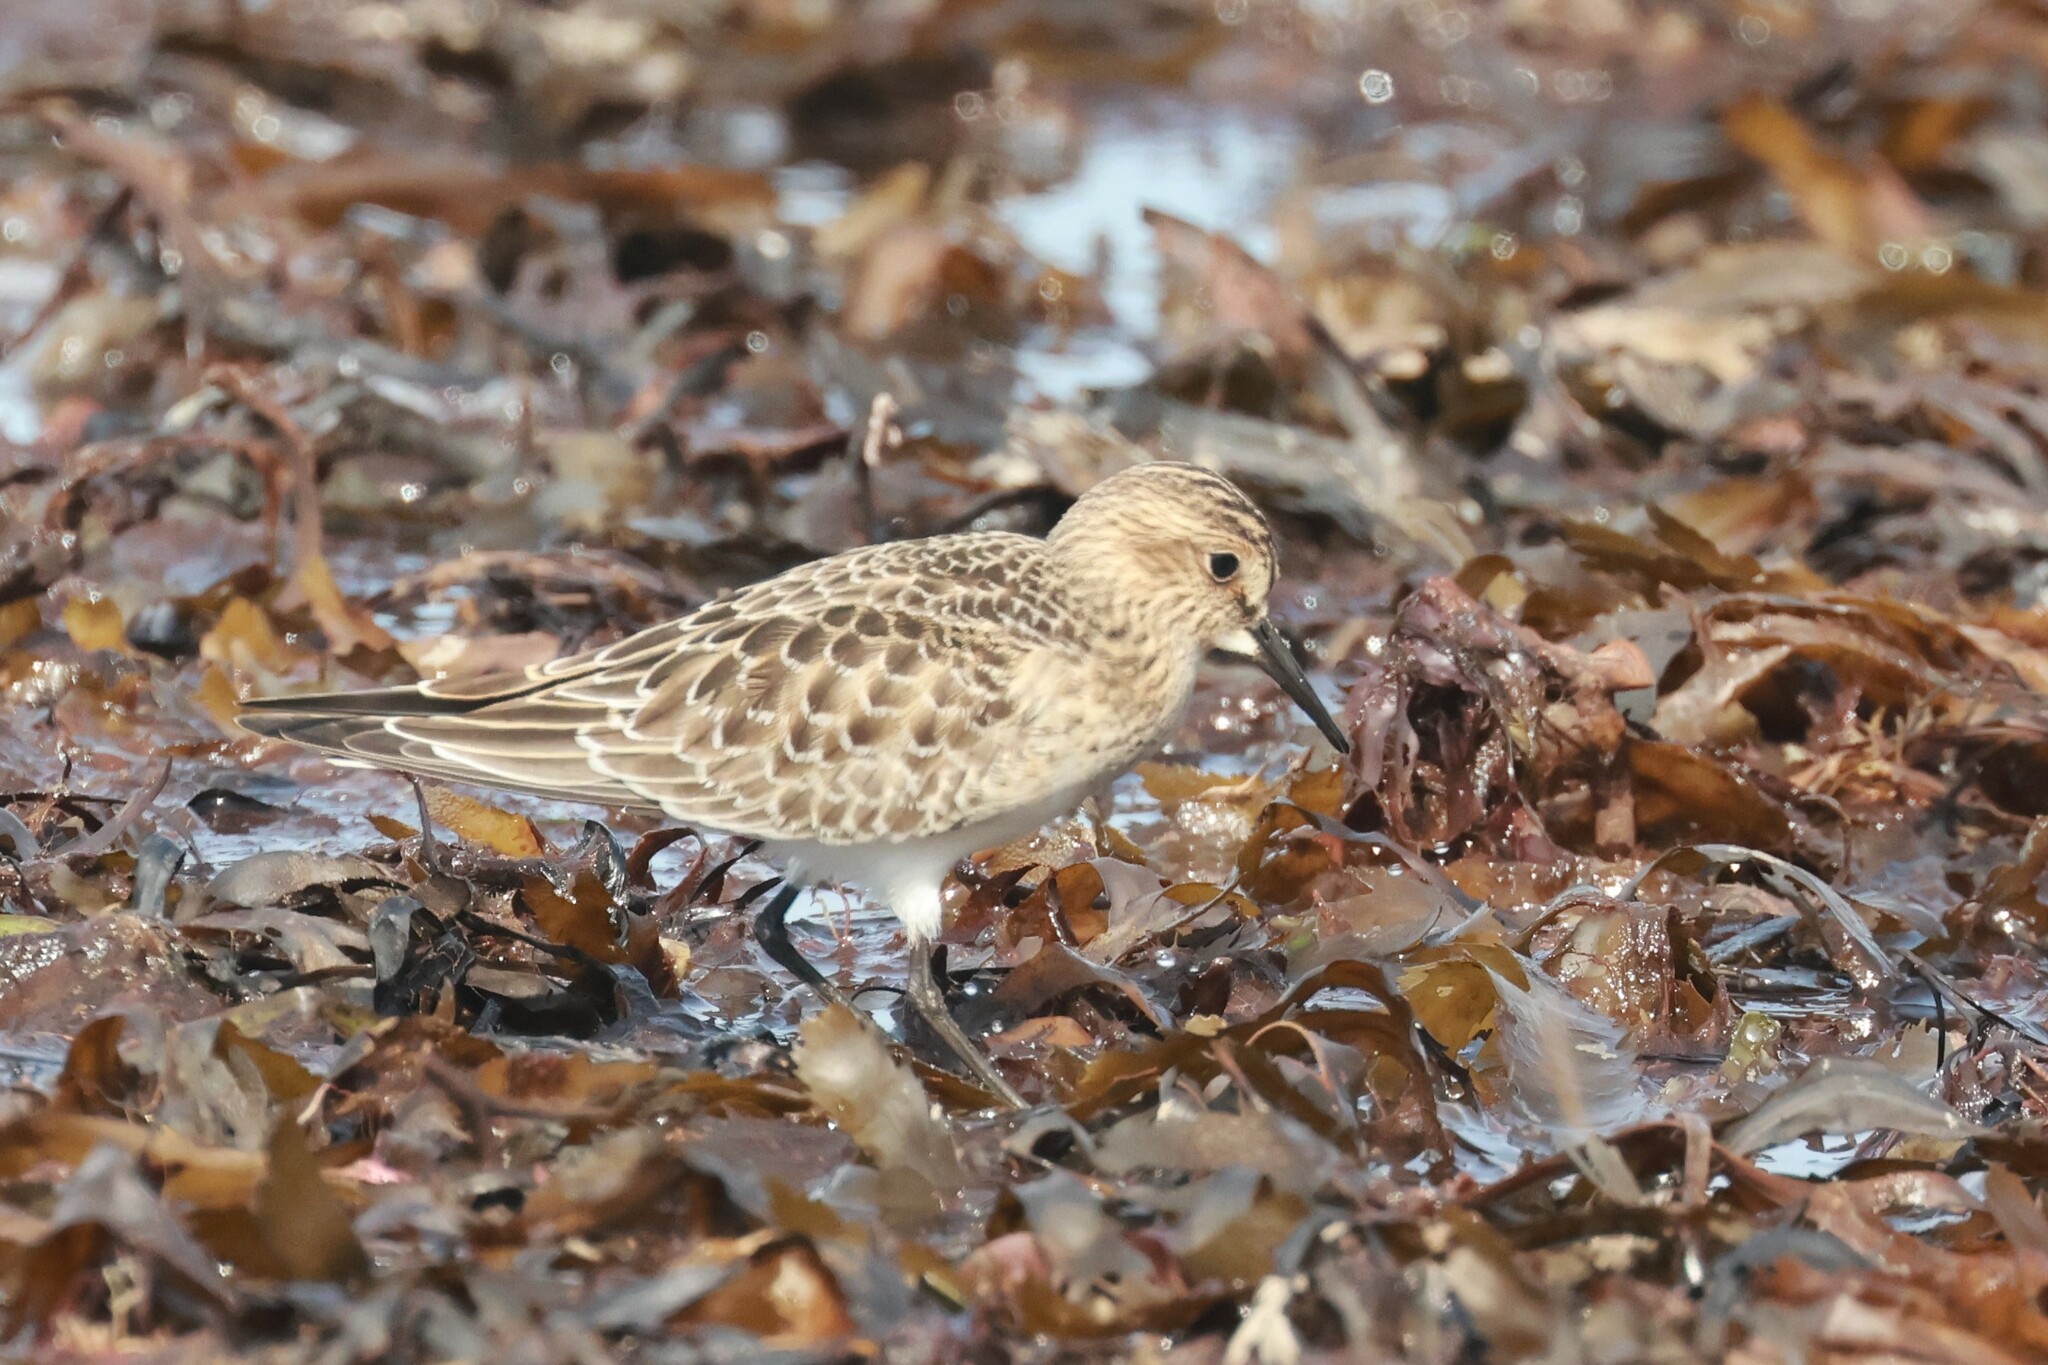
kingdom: Animalia
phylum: Chordata
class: Aves
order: Charadriiformes
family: Scolopacidae
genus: Calidris
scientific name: Calidris bairdii
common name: Baird's sandpiper
